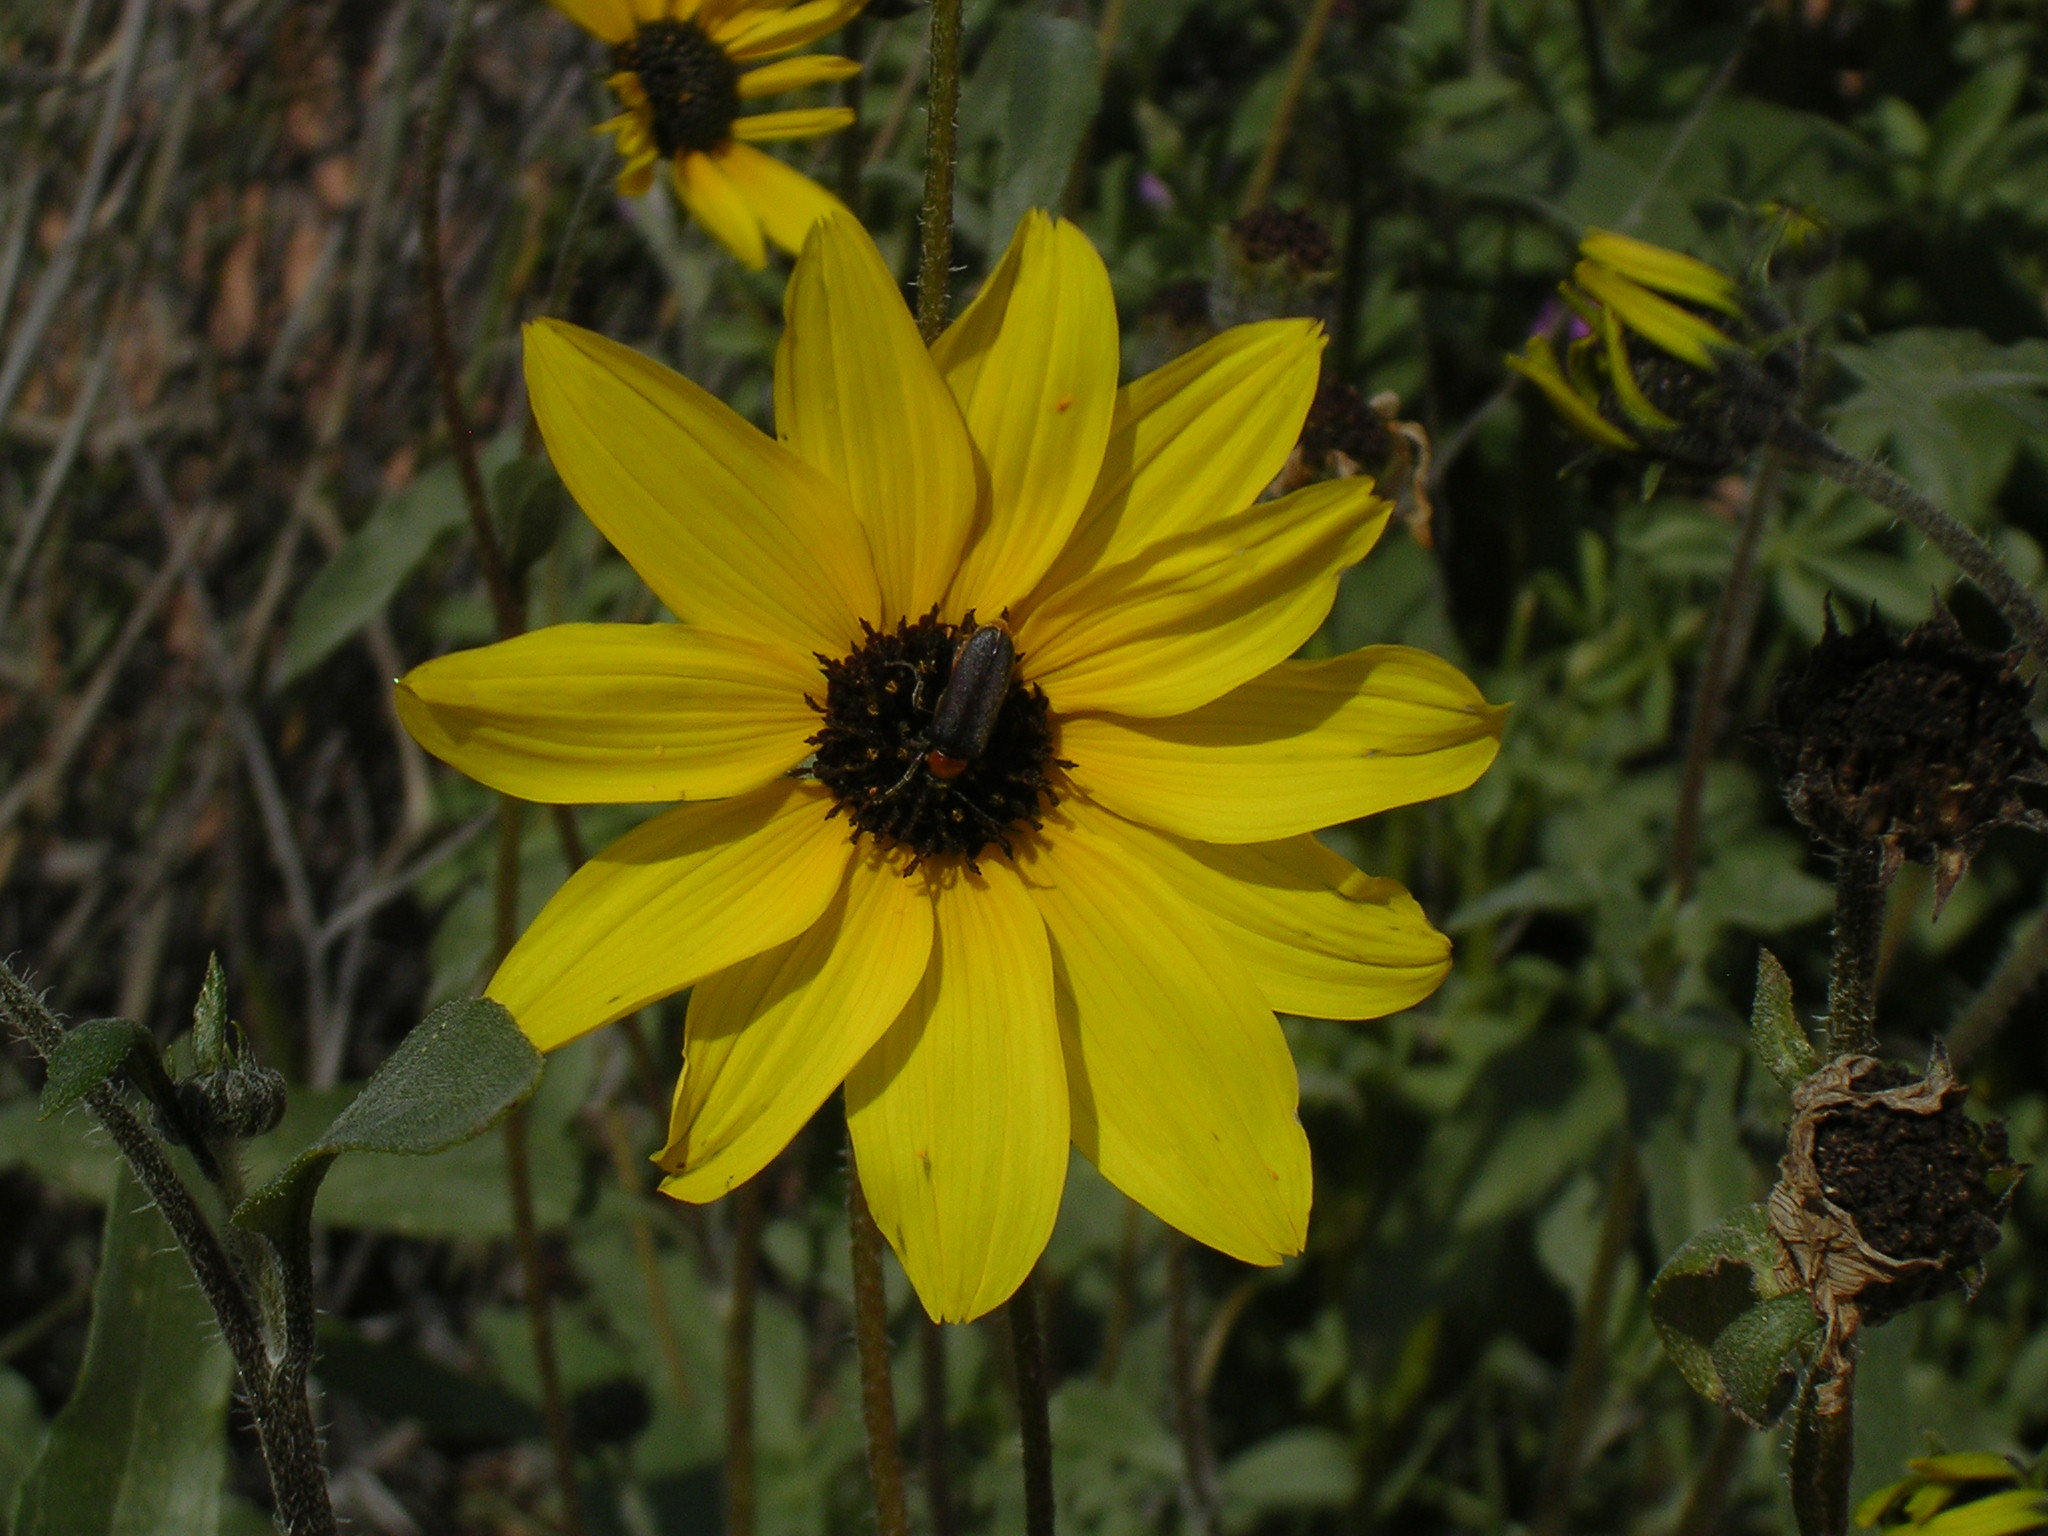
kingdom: Plantae
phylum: Tracheophyta
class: Magnoliopsida
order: Asterales
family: Asteraceae
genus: Helianthus
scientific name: Helianthus petiolaris
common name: Lesser sunflower
